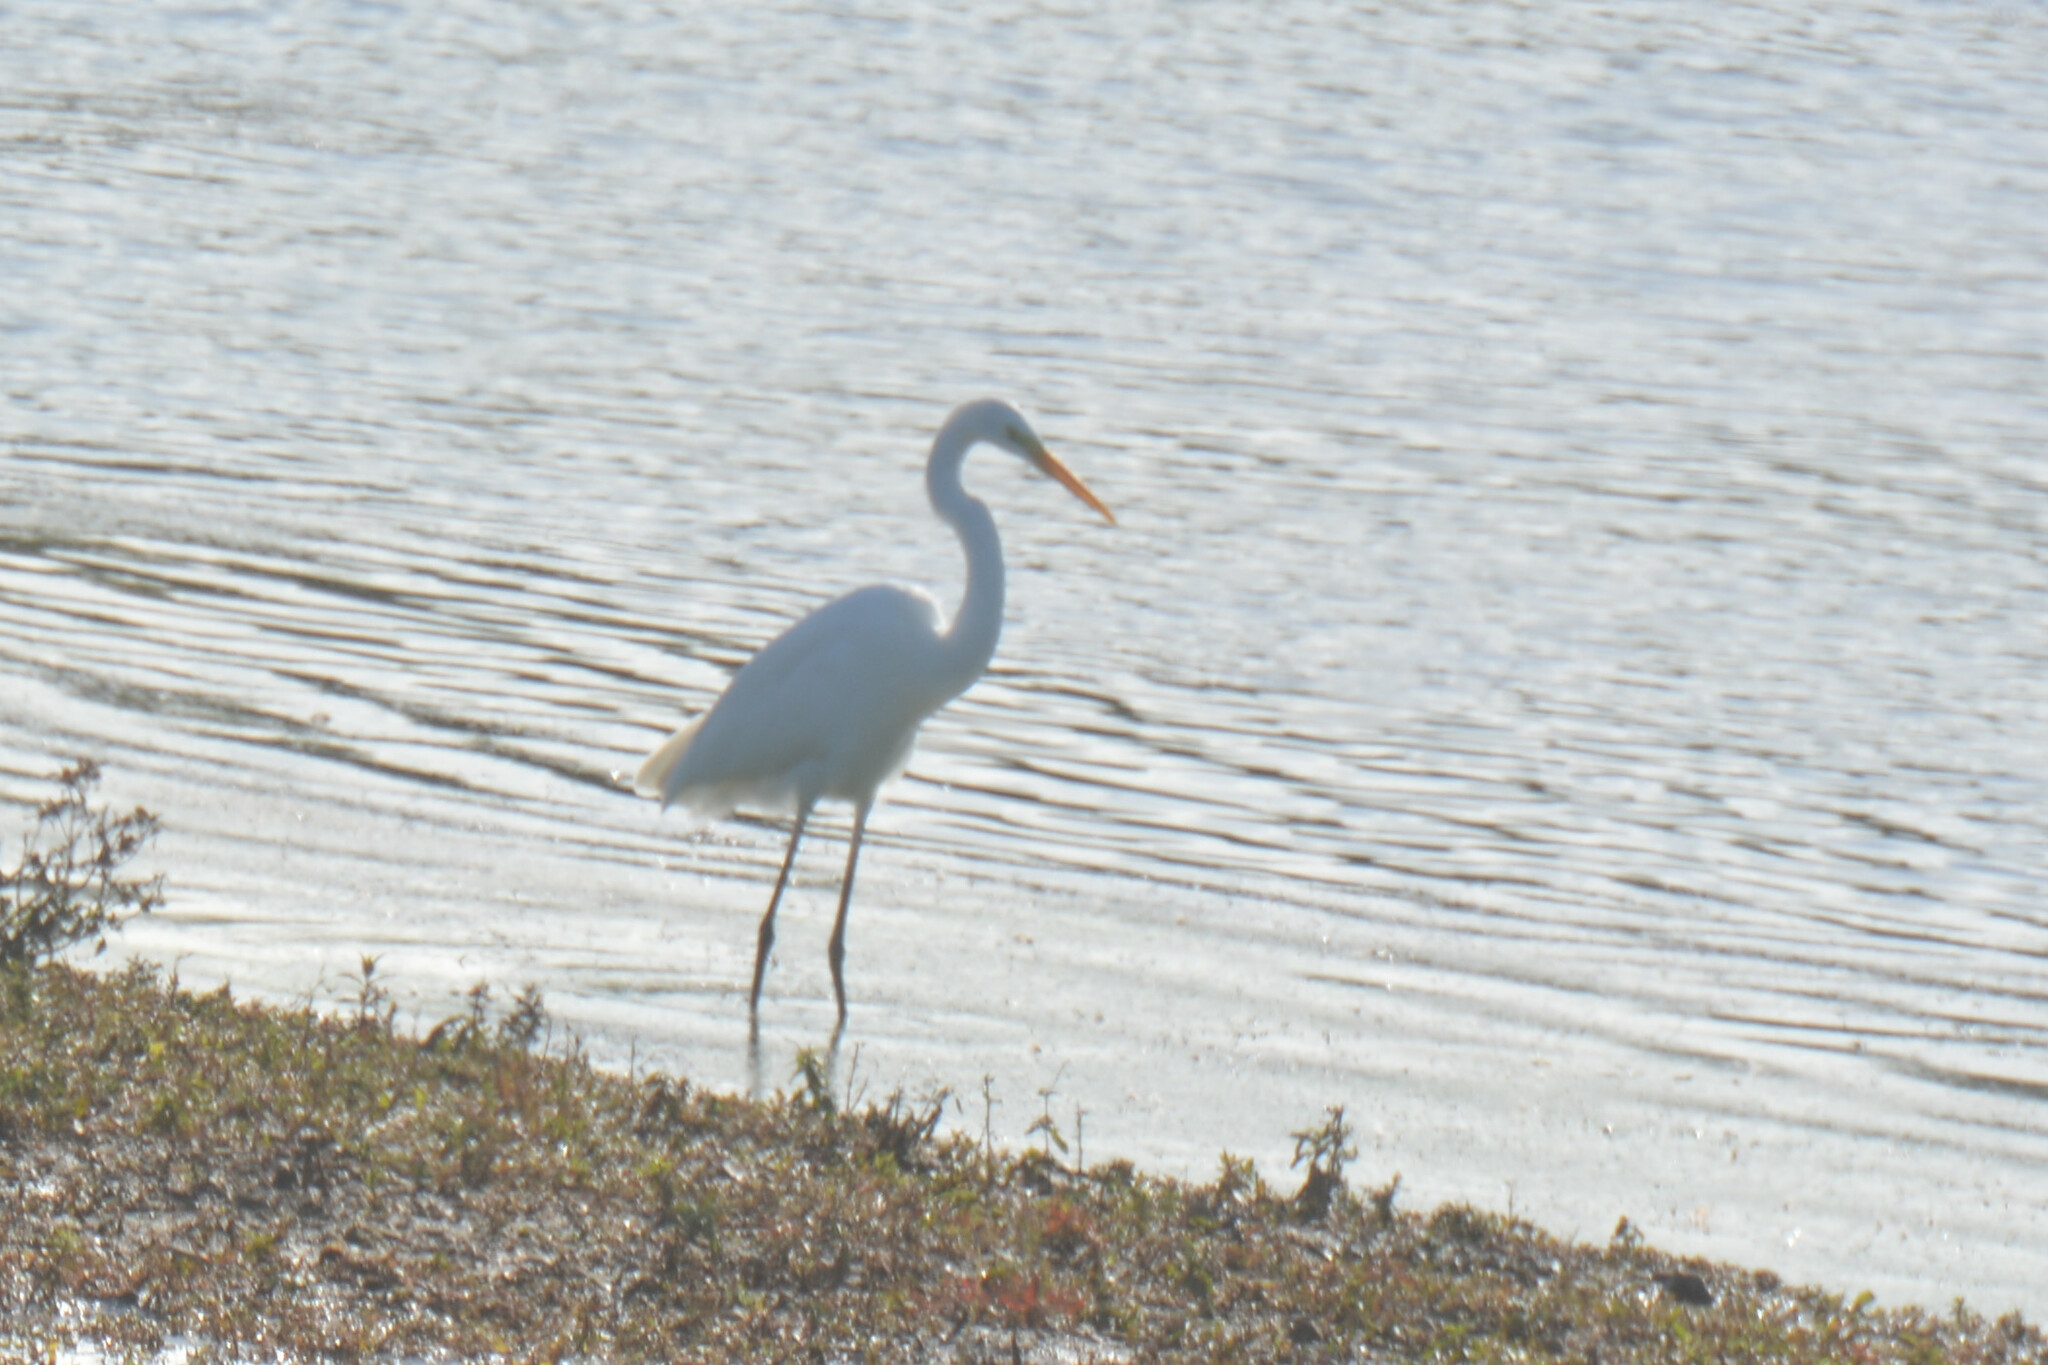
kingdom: Animalia
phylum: Chordata
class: Aves
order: Pelecaniformes
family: Ardeidae
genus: Ardea
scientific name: Ardea alba
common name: Great egret
